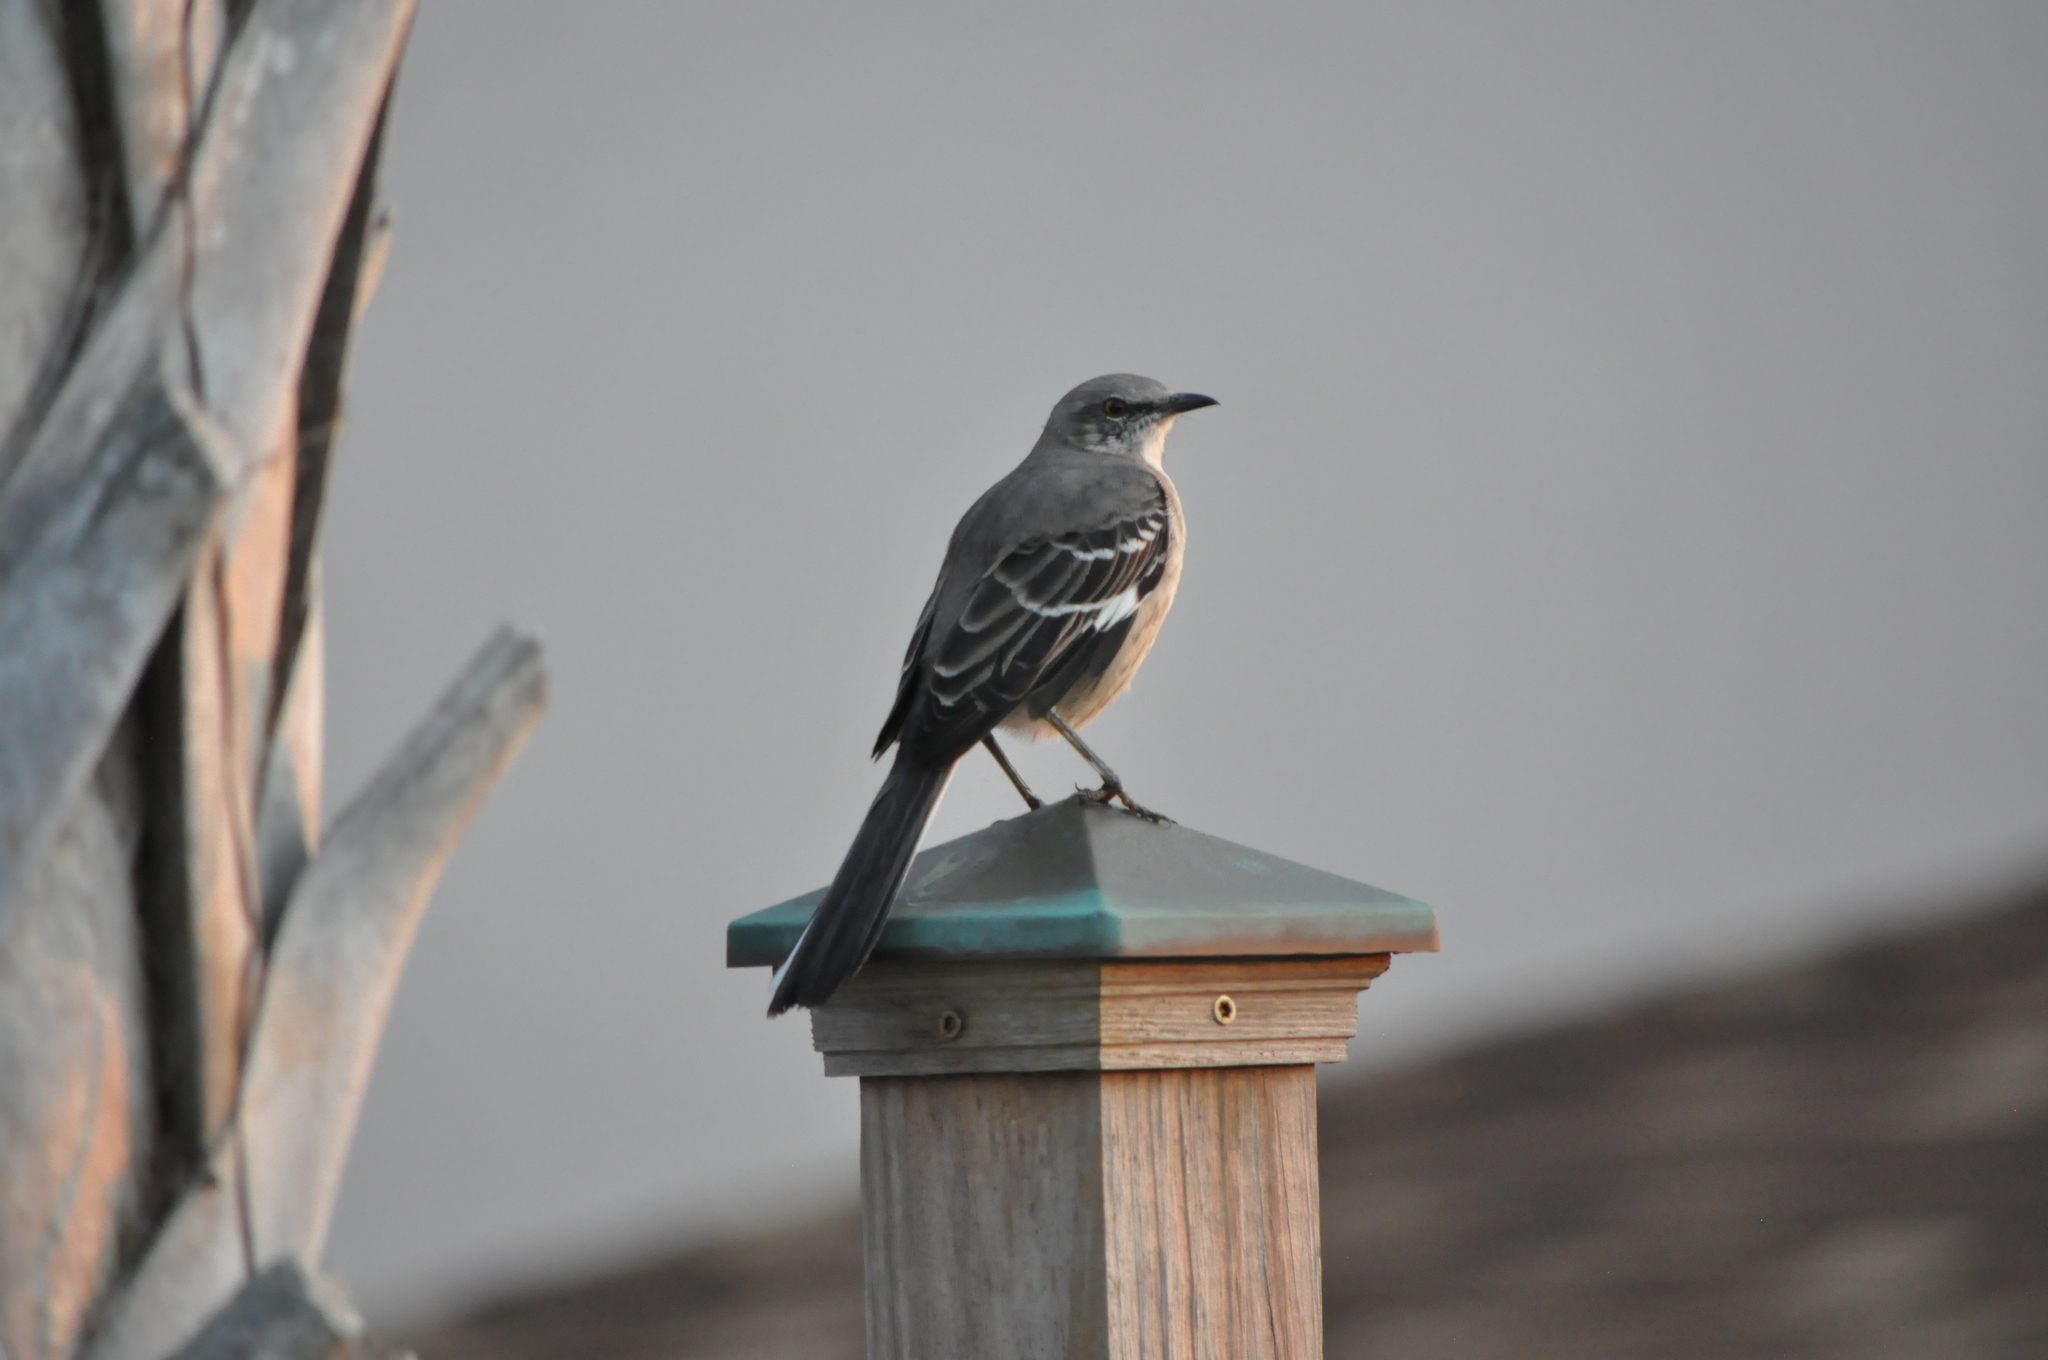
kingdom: Animalia
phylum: Chordata
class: Aves
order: Passeriformes
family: Mimidae
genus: Mimus
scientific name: Mimus polyglottos
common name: Northern mockingbird
